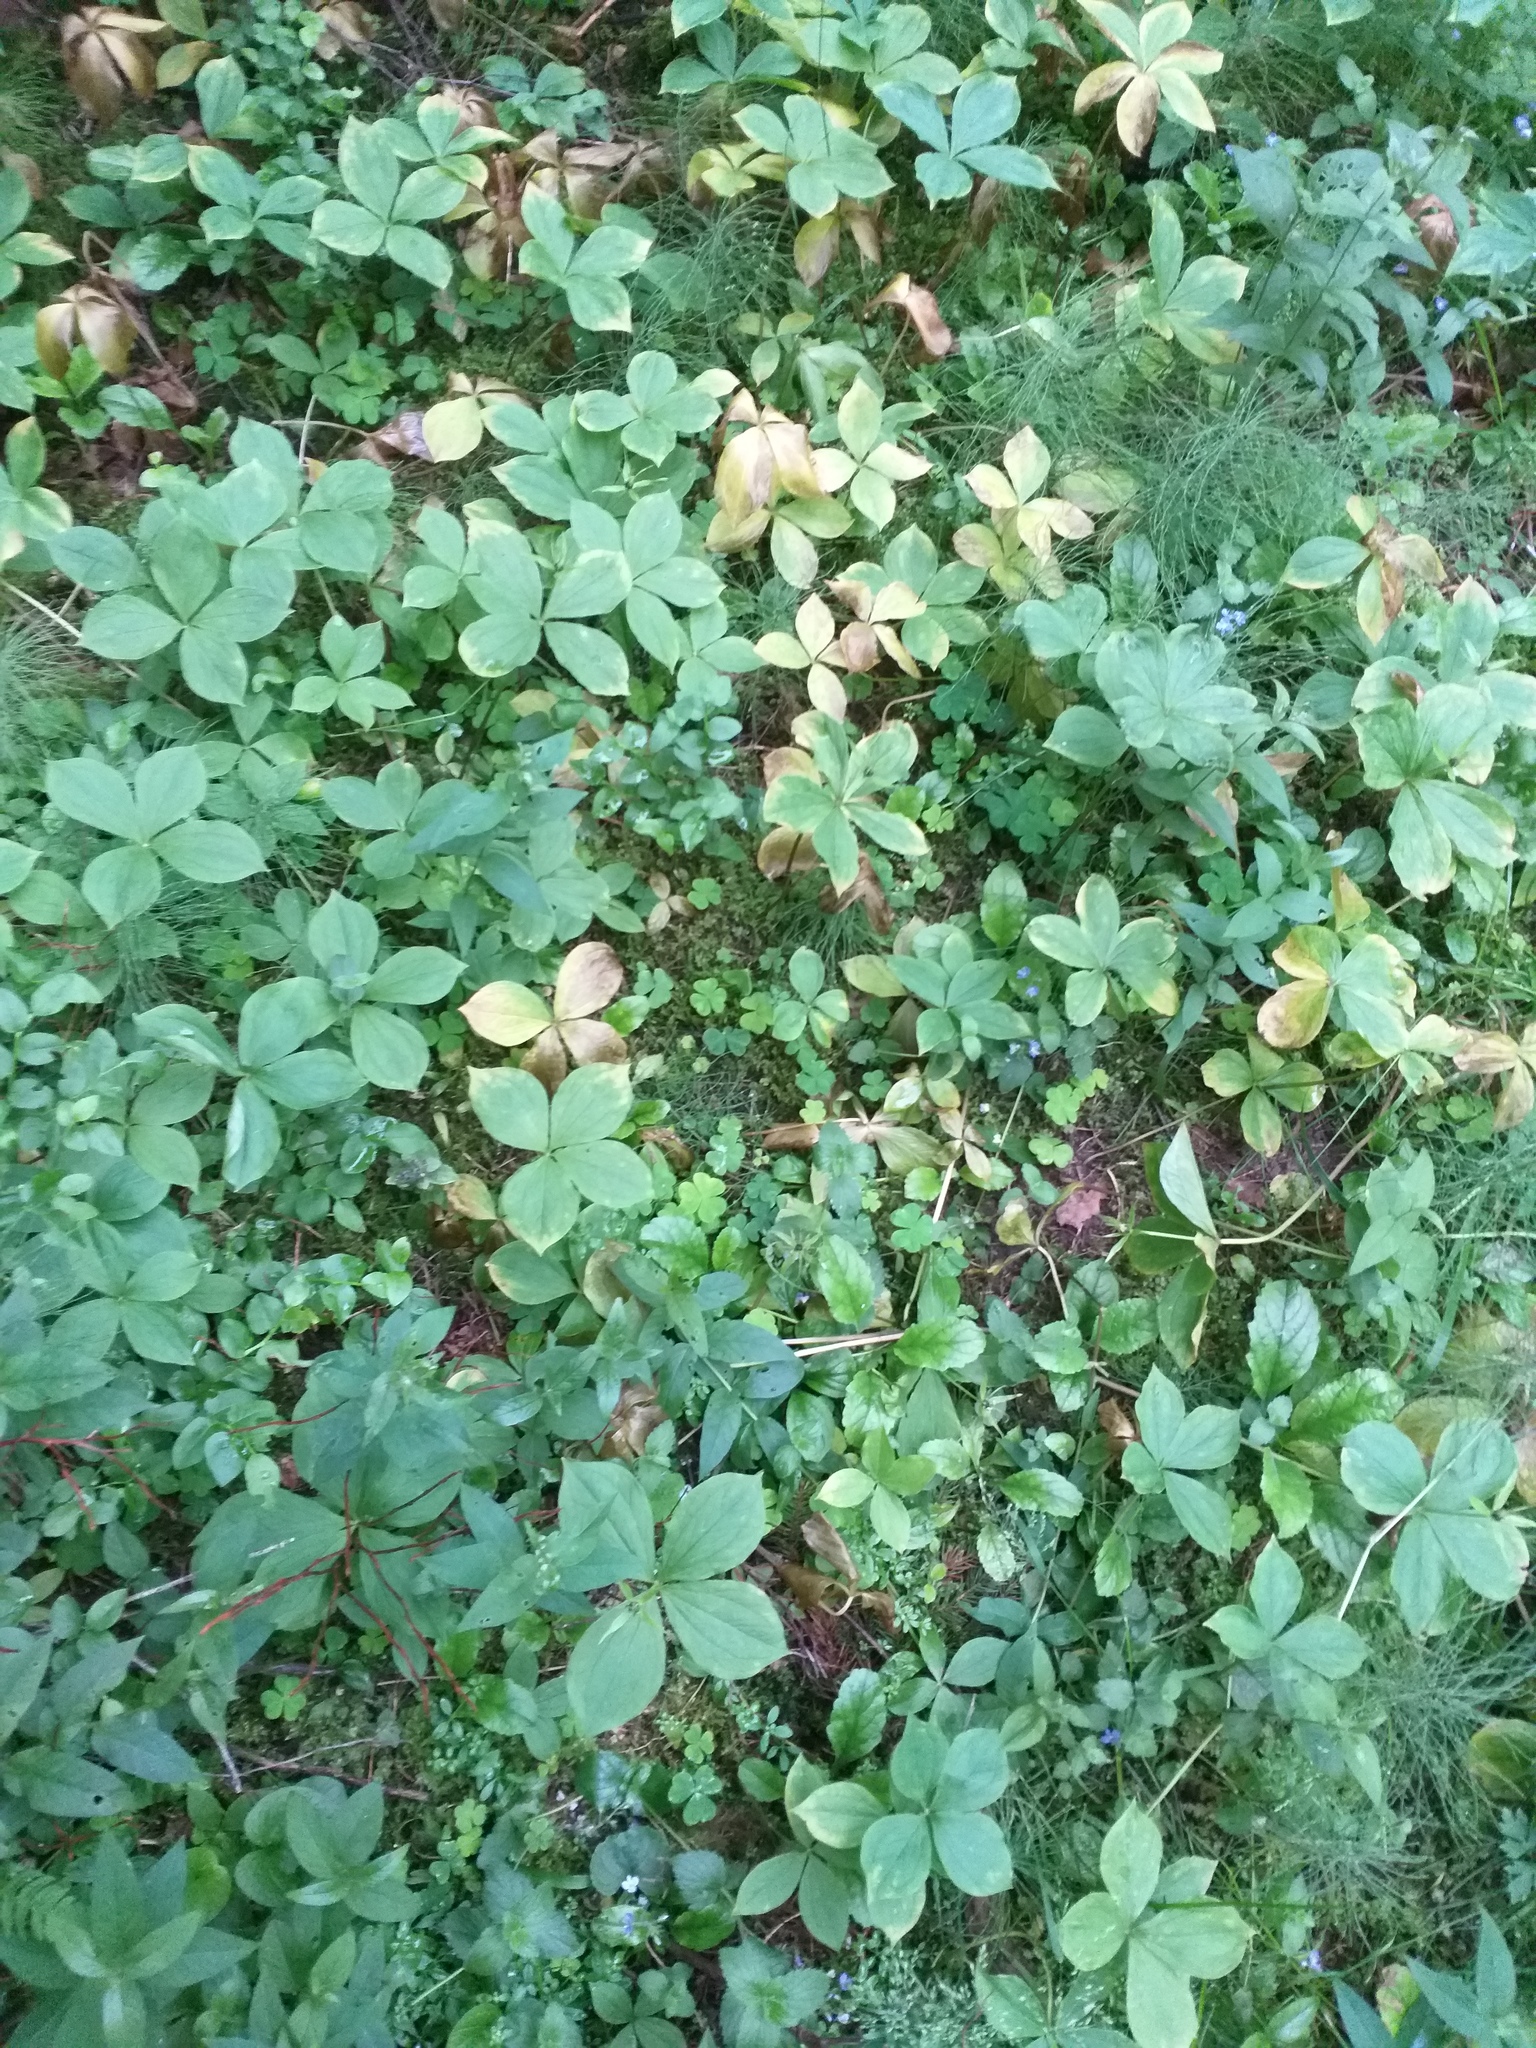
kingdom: Plantae
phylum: Tracheophyta
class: Liliopsida
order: Liliales
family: Melanthiaceae
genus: Paris
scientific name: Paris quadrifolia
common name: Herb-paris
